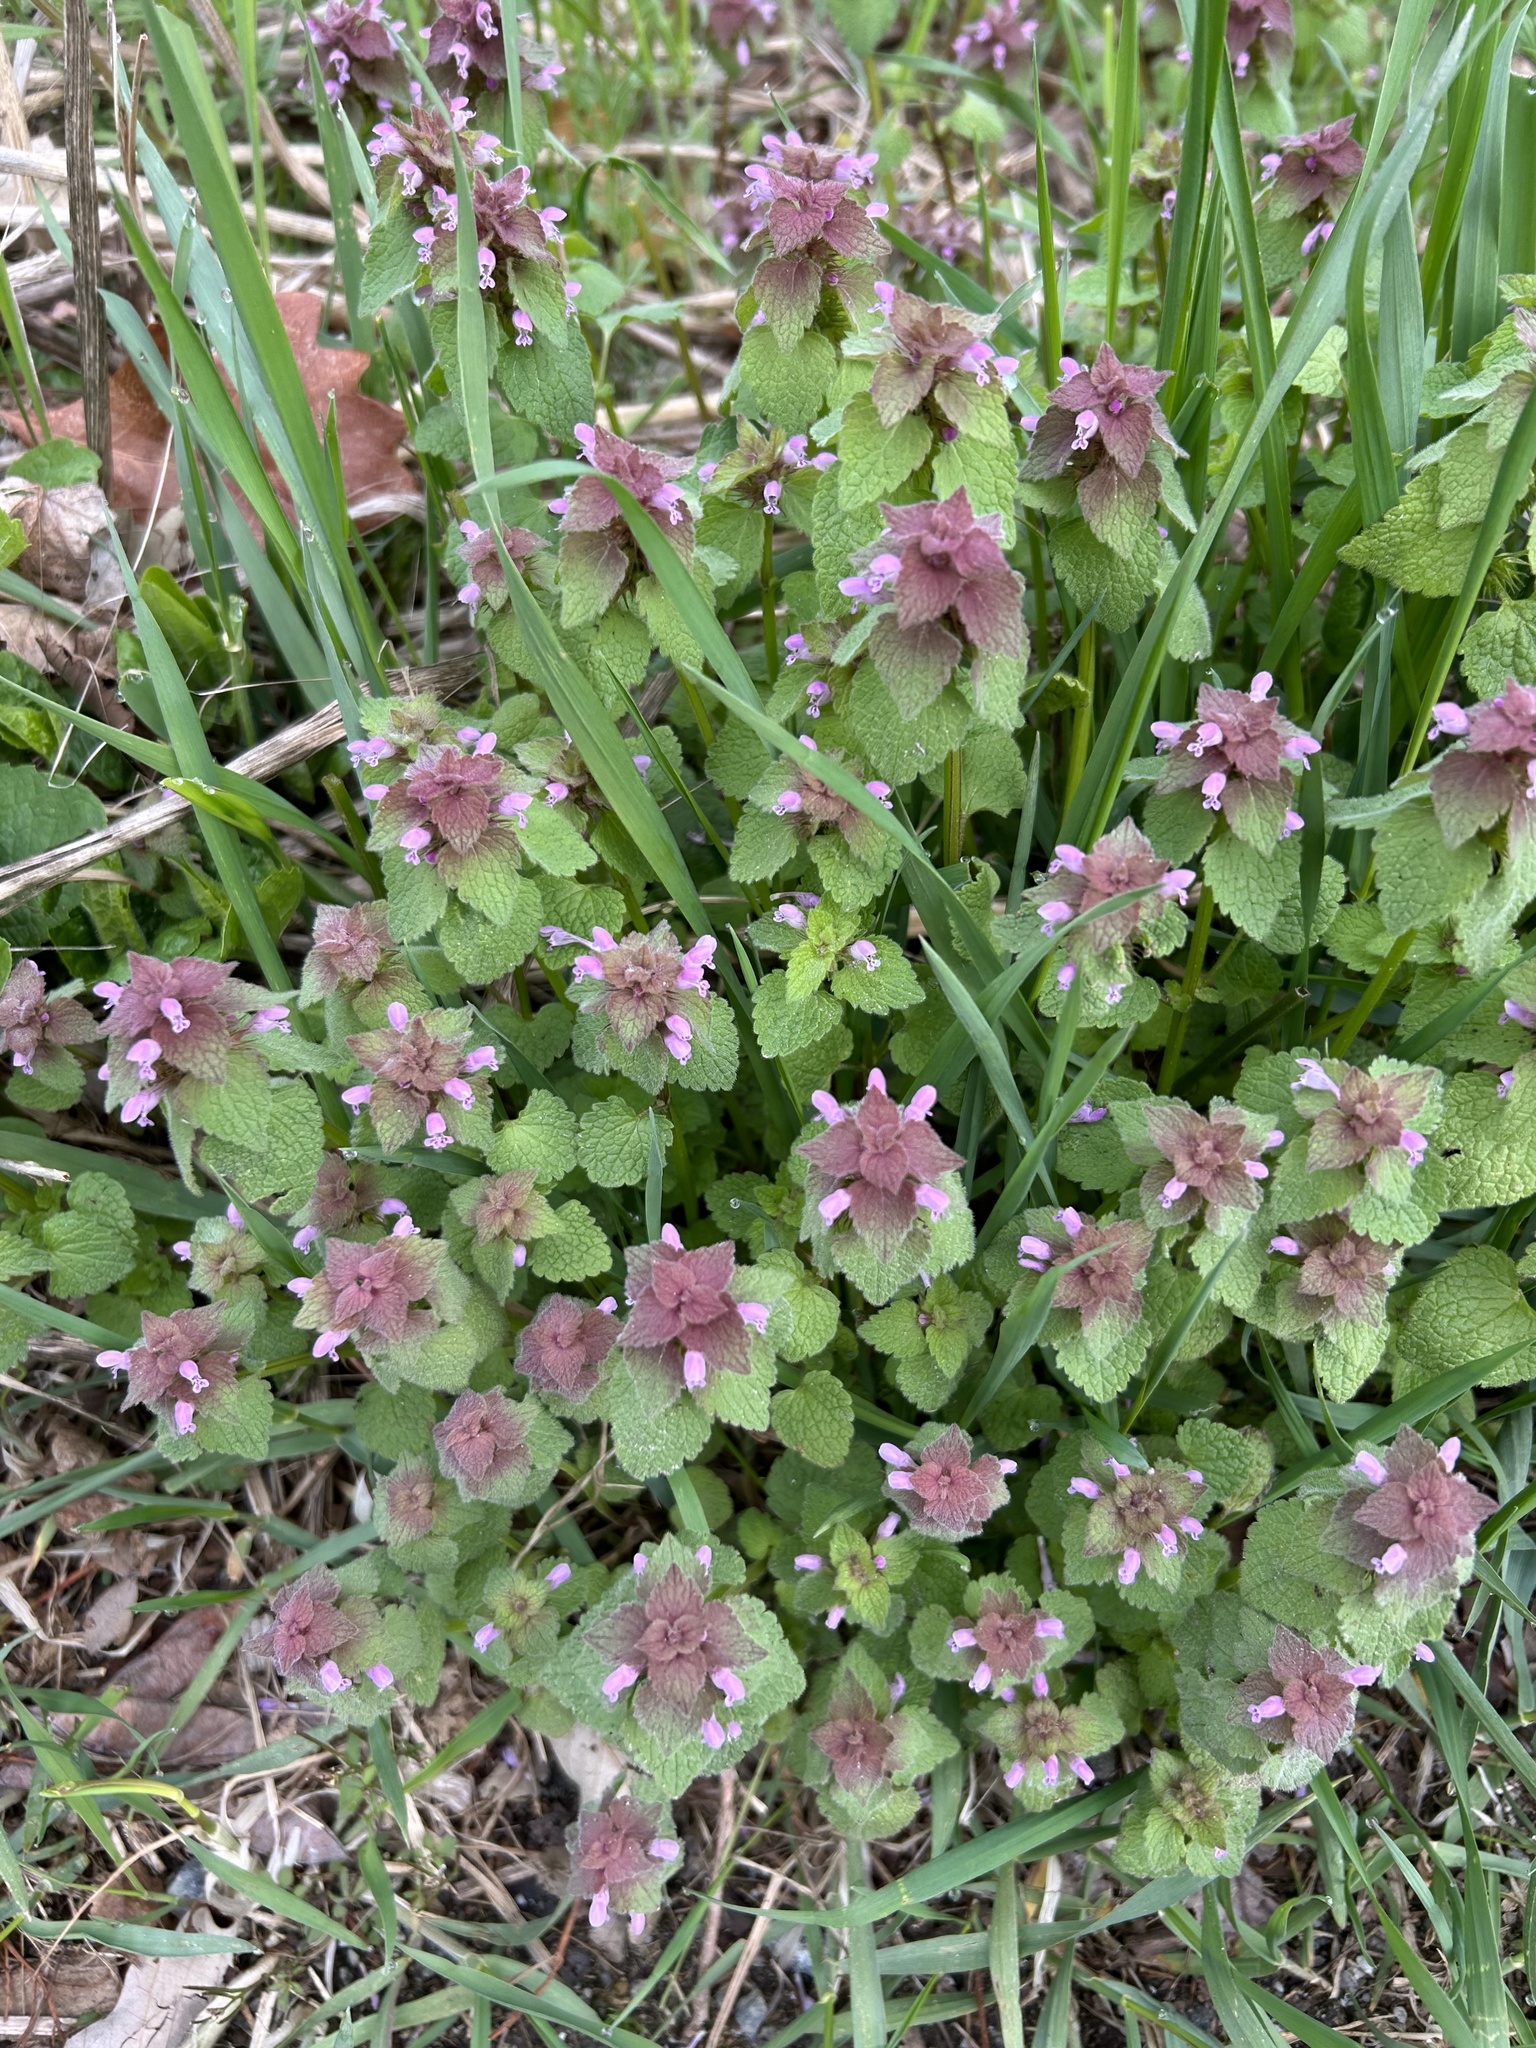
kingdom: Plantae
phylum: Tracheophyta
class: Magnoliopsida
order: Lamiales
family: Lamiaceae
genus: Lamium
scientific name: Lamium purpureum
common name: Red dead-nettle
